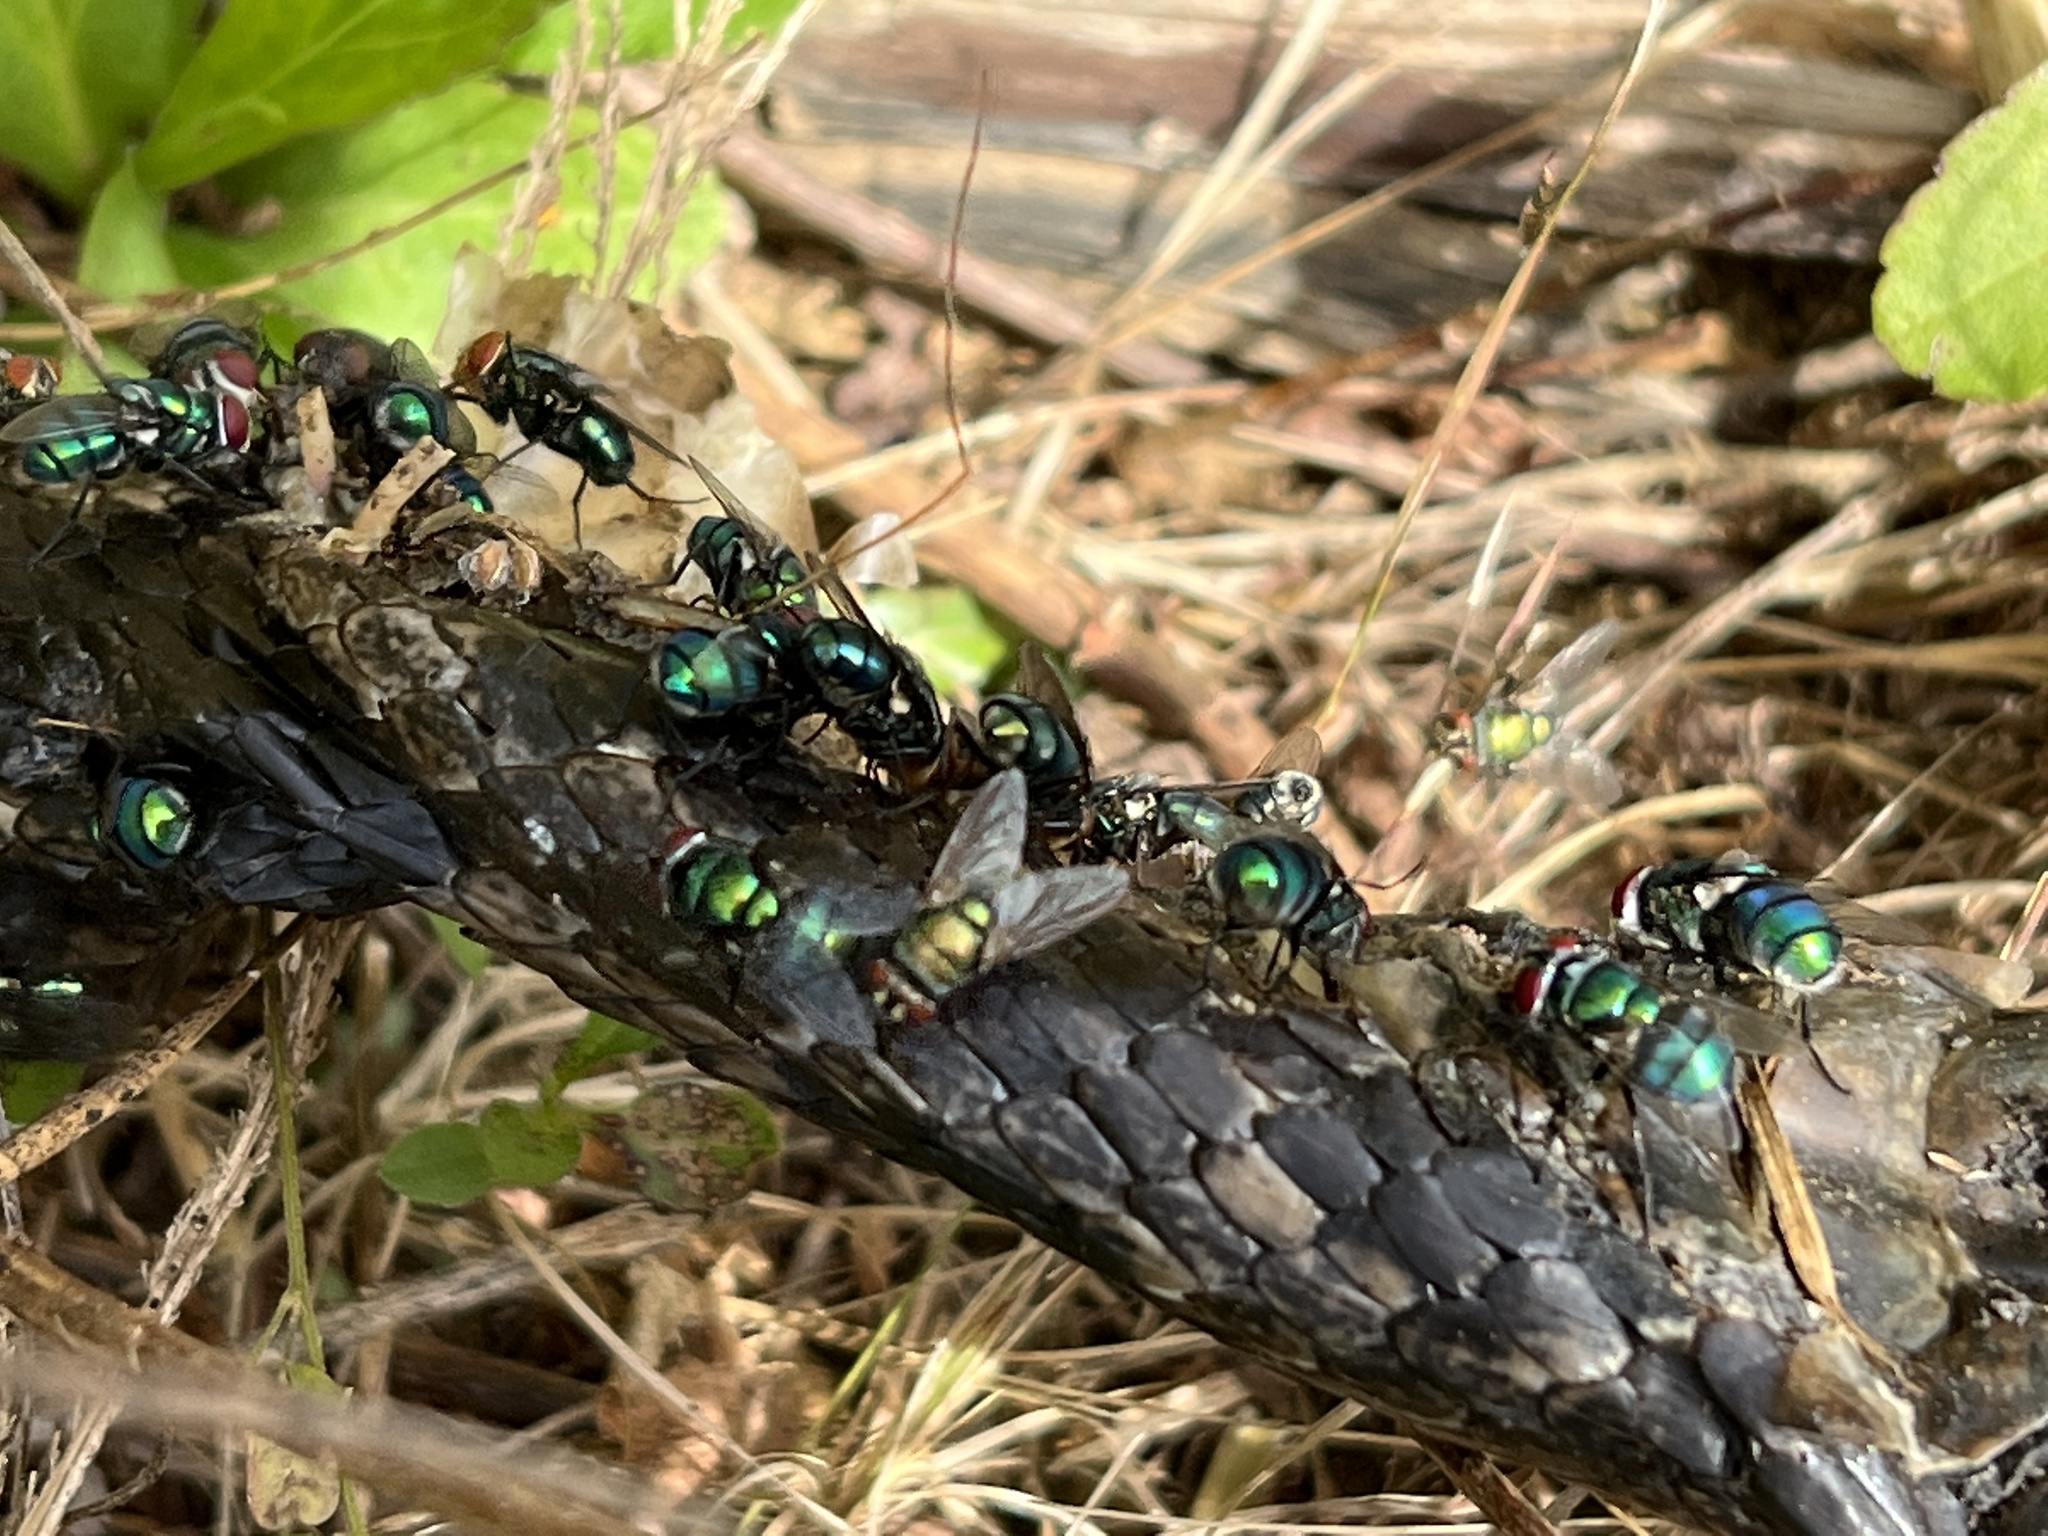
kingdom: Animalia
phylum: Arthropoda
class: Insecta
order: Diptera
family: Calliphoridae
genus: Chrysomya
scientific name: Chrysomya rufifacies
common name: Blow fly
